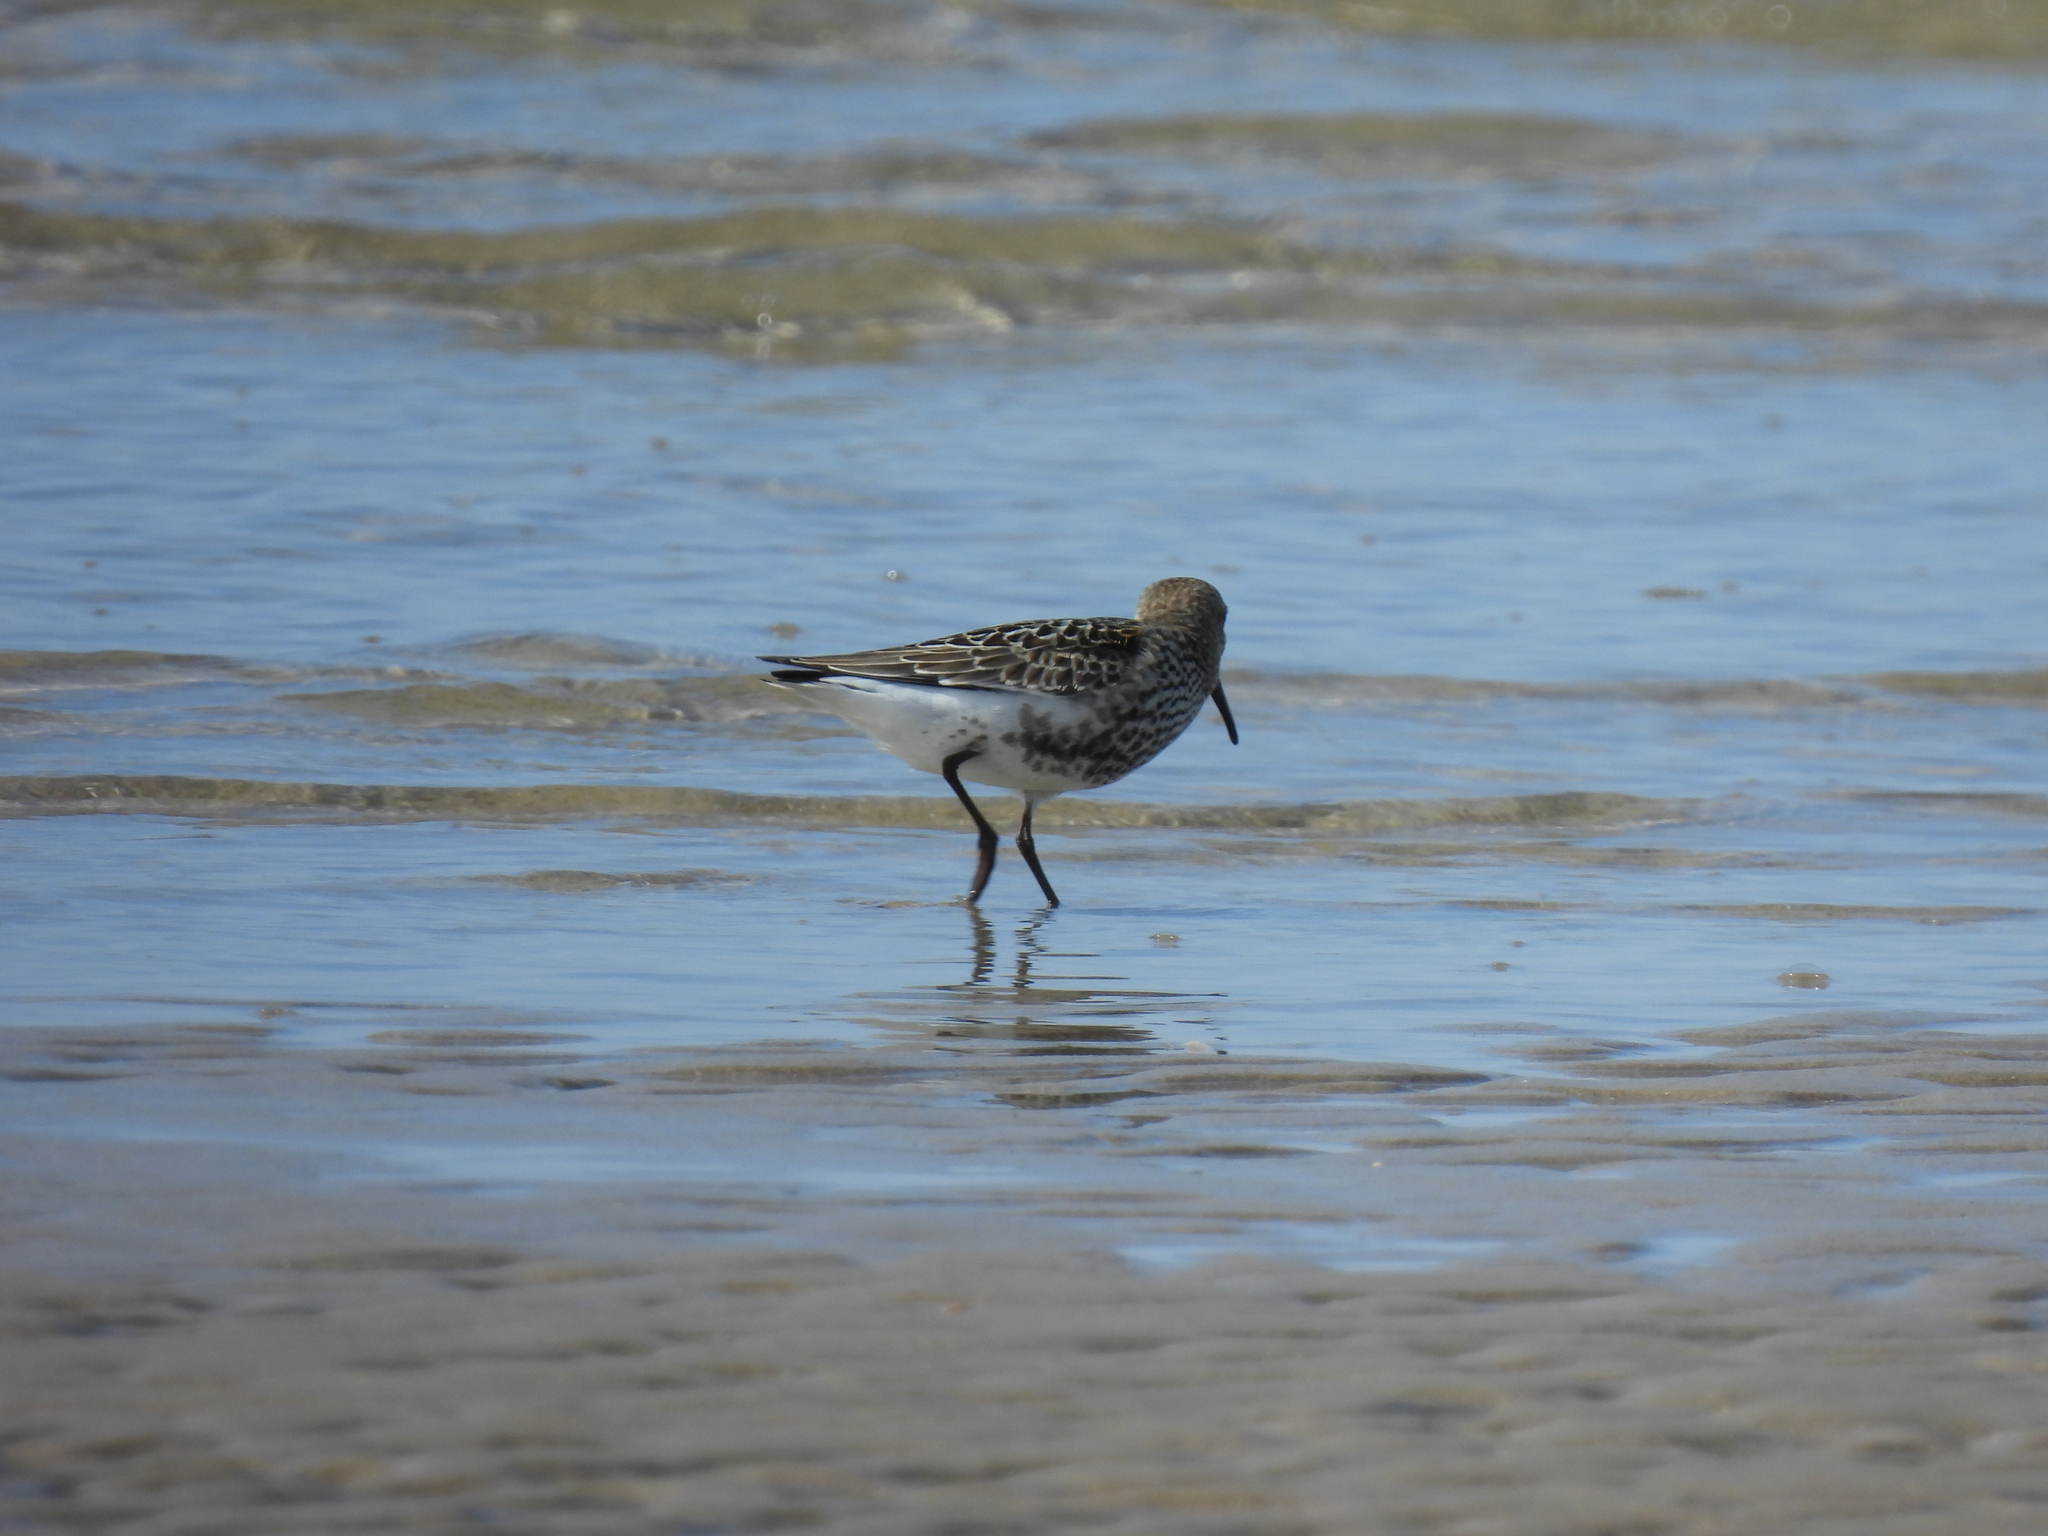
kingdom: Animalia
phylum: Chordata
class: Aves
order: Charadriiformes
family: Scolopacidae
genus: Calidris
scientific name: Calidris alpina
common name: Dunlin
